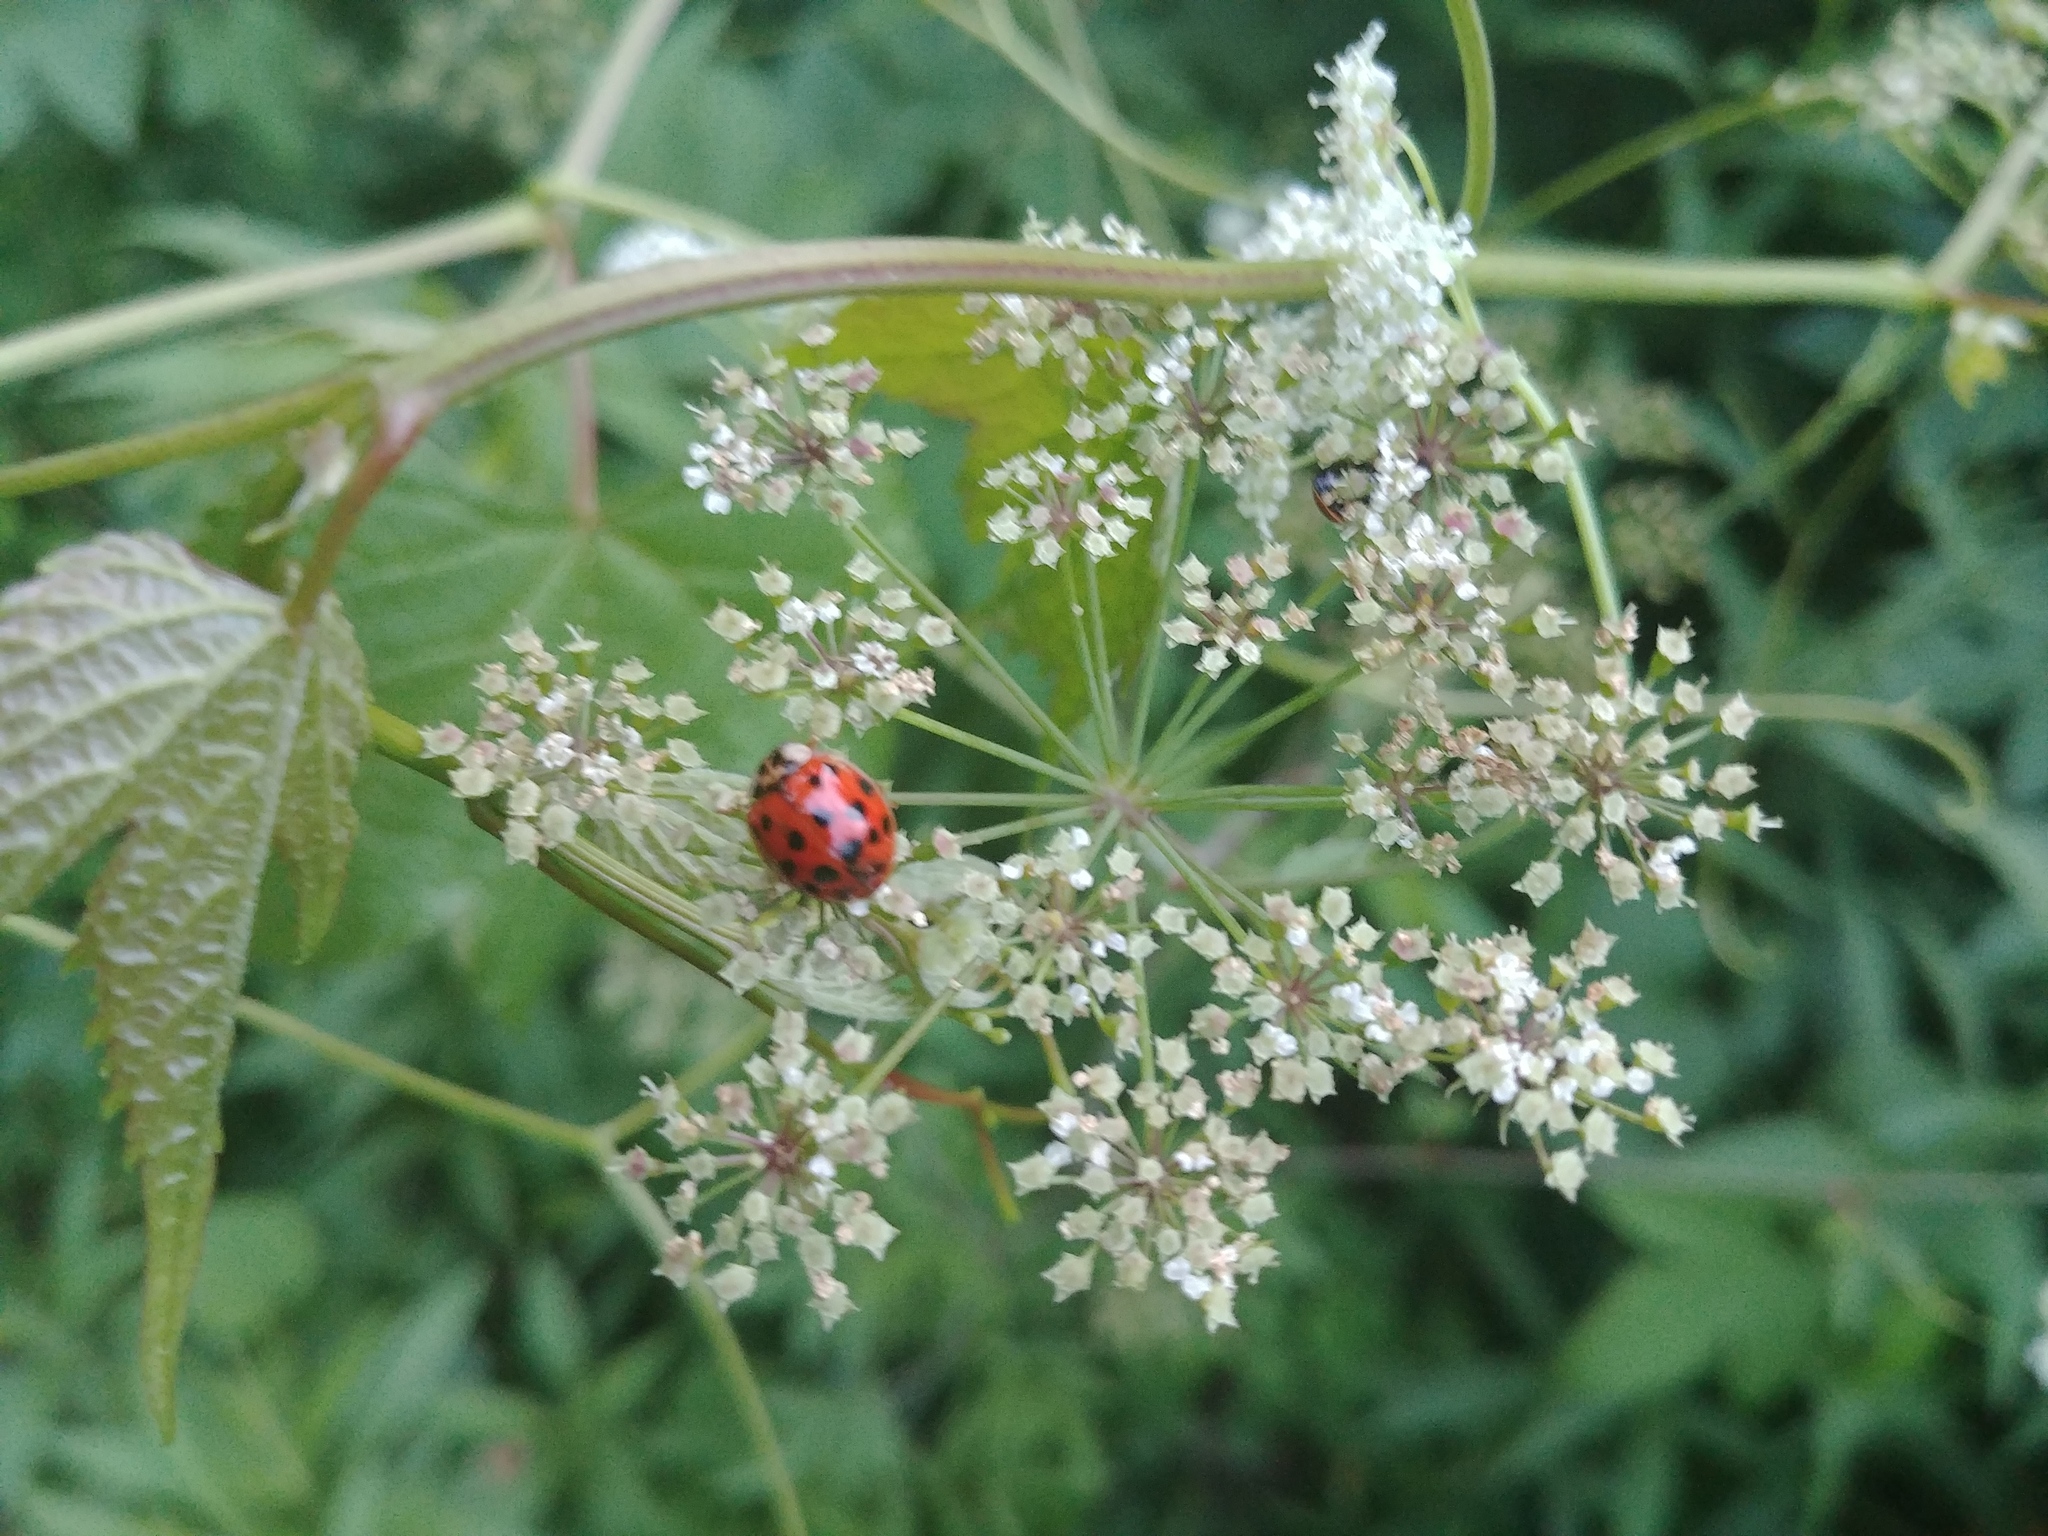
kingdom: Animalia
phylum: Arthropoda
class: Insecta
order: Coleoptera
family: Coccinellidae
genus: Harmonia
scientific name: Harmonia axyridis
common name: Harlequin ladybird
